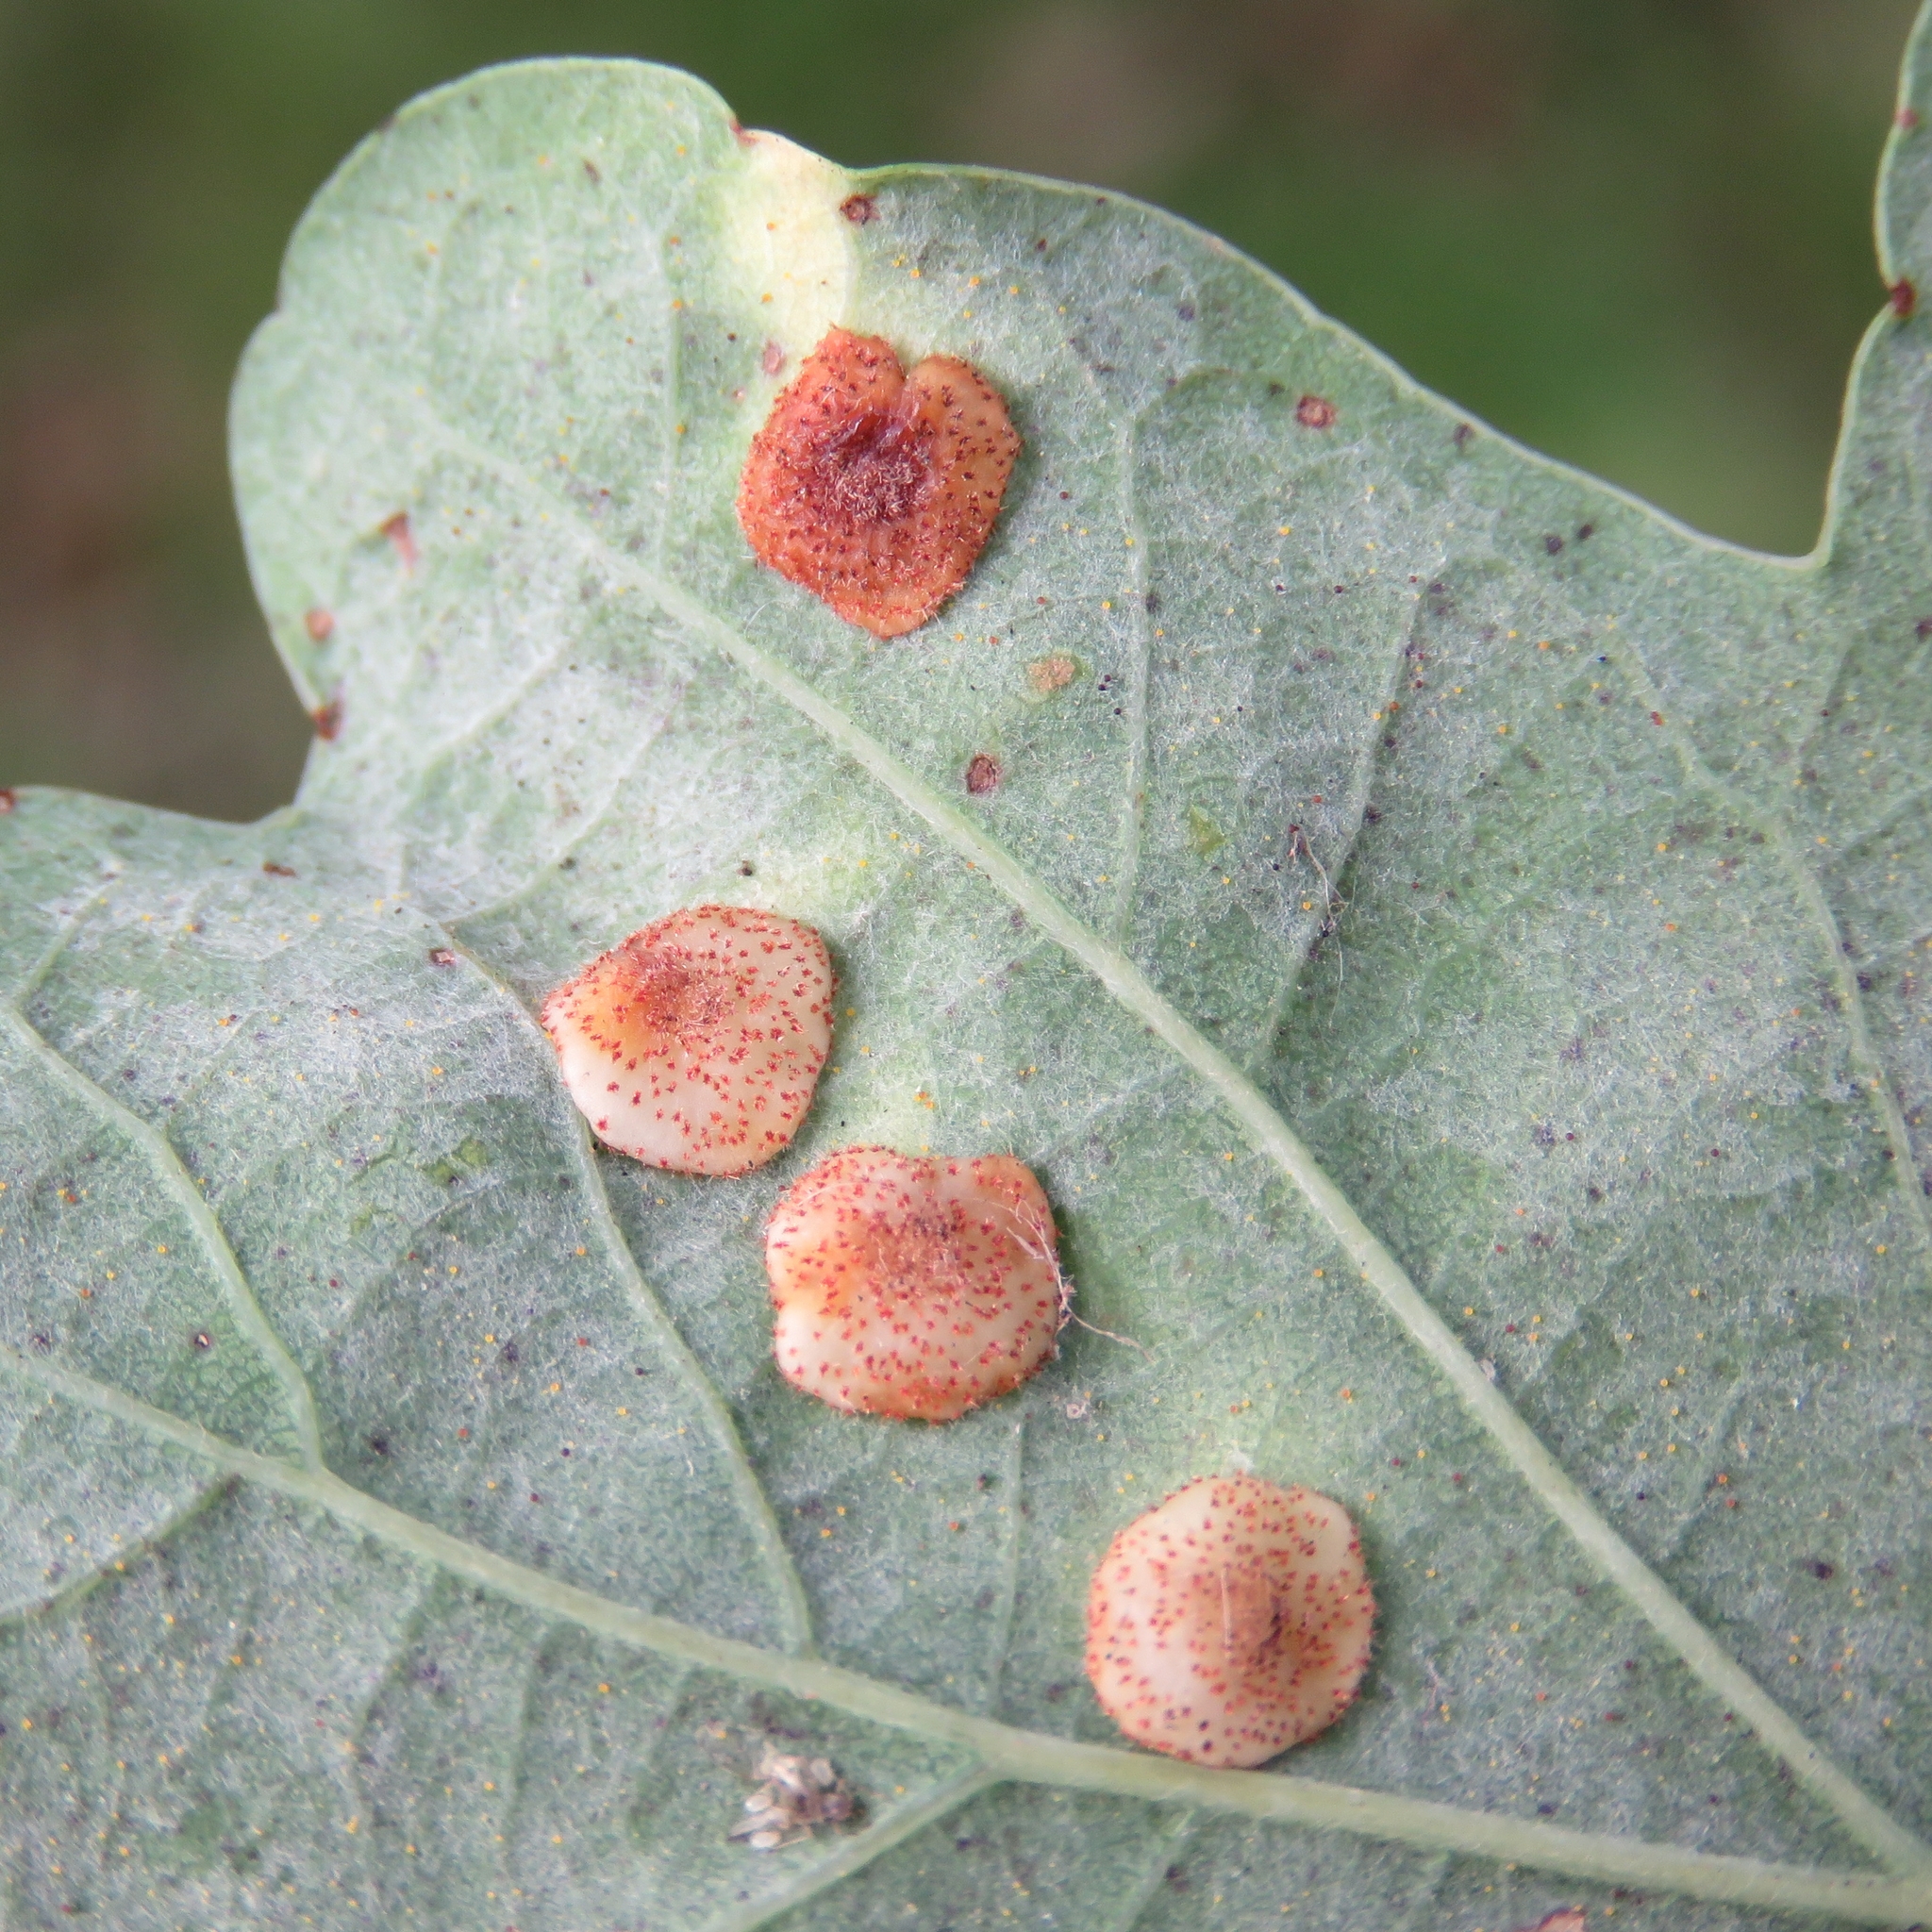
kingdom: Animalia
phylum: Arthropoda
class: Insecta
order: Hymenoptera
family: Cynipidae
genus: Neuroterus
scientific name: Neuroterus quercusbaccarum
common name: Common spangle gall
